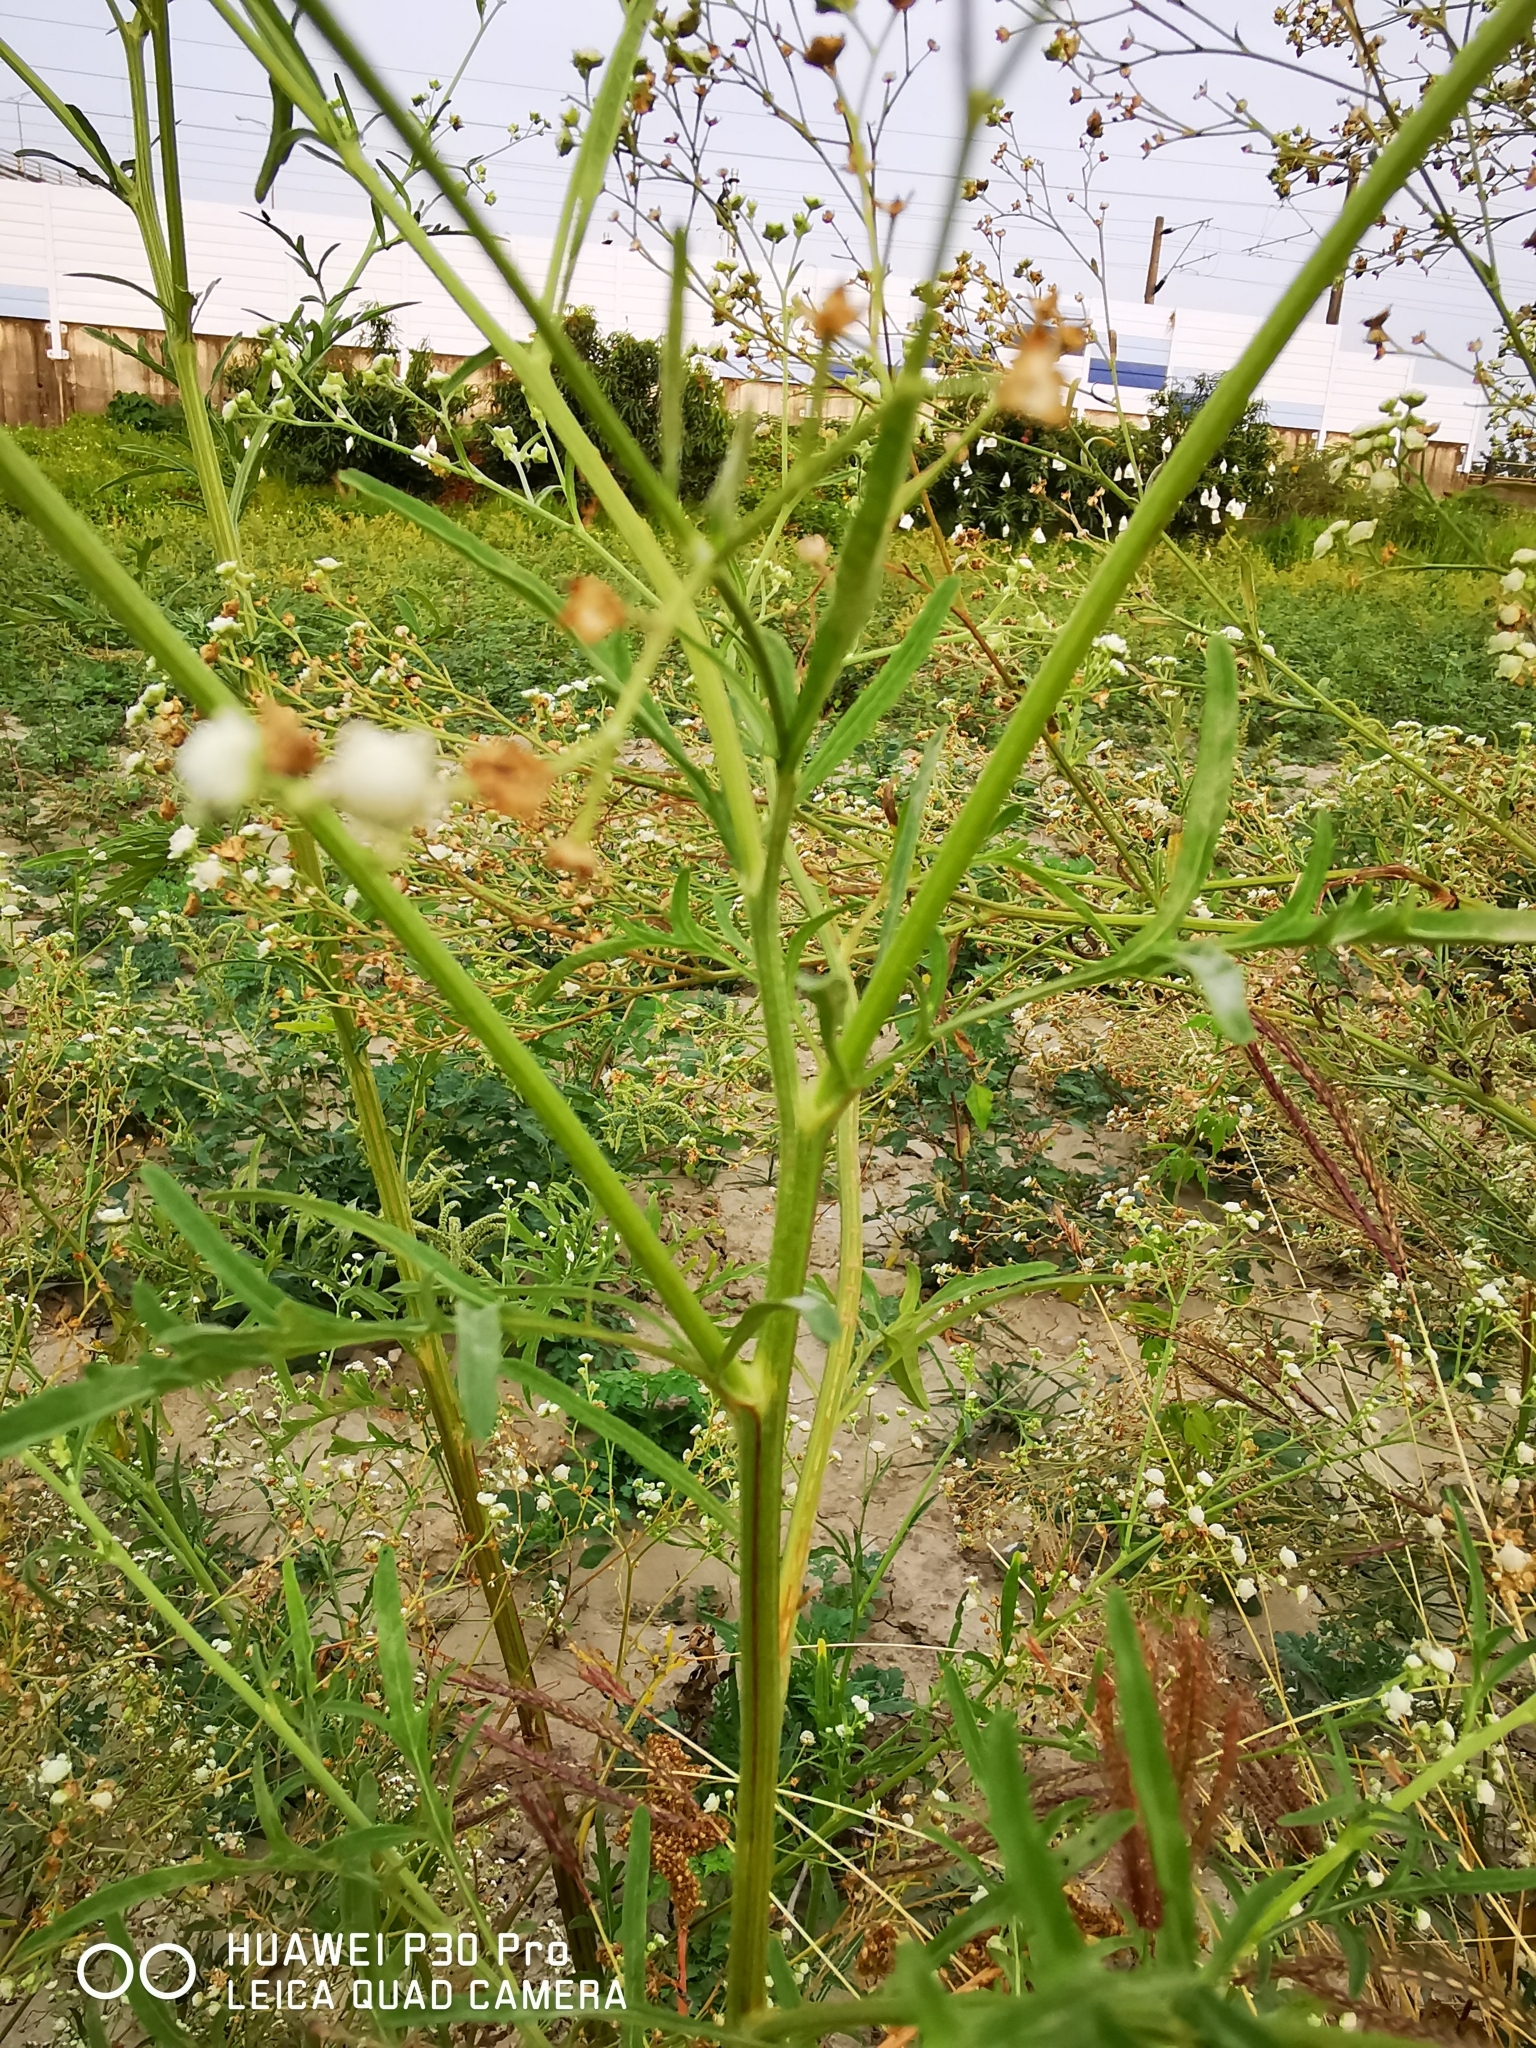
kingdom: Plantae
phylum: Tracheophyta
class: Magnoliopsida
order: Asterales
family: Asteraceae
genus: Parthenium
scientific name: Parthenium hysterophorus
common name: Santa maria feverfew
